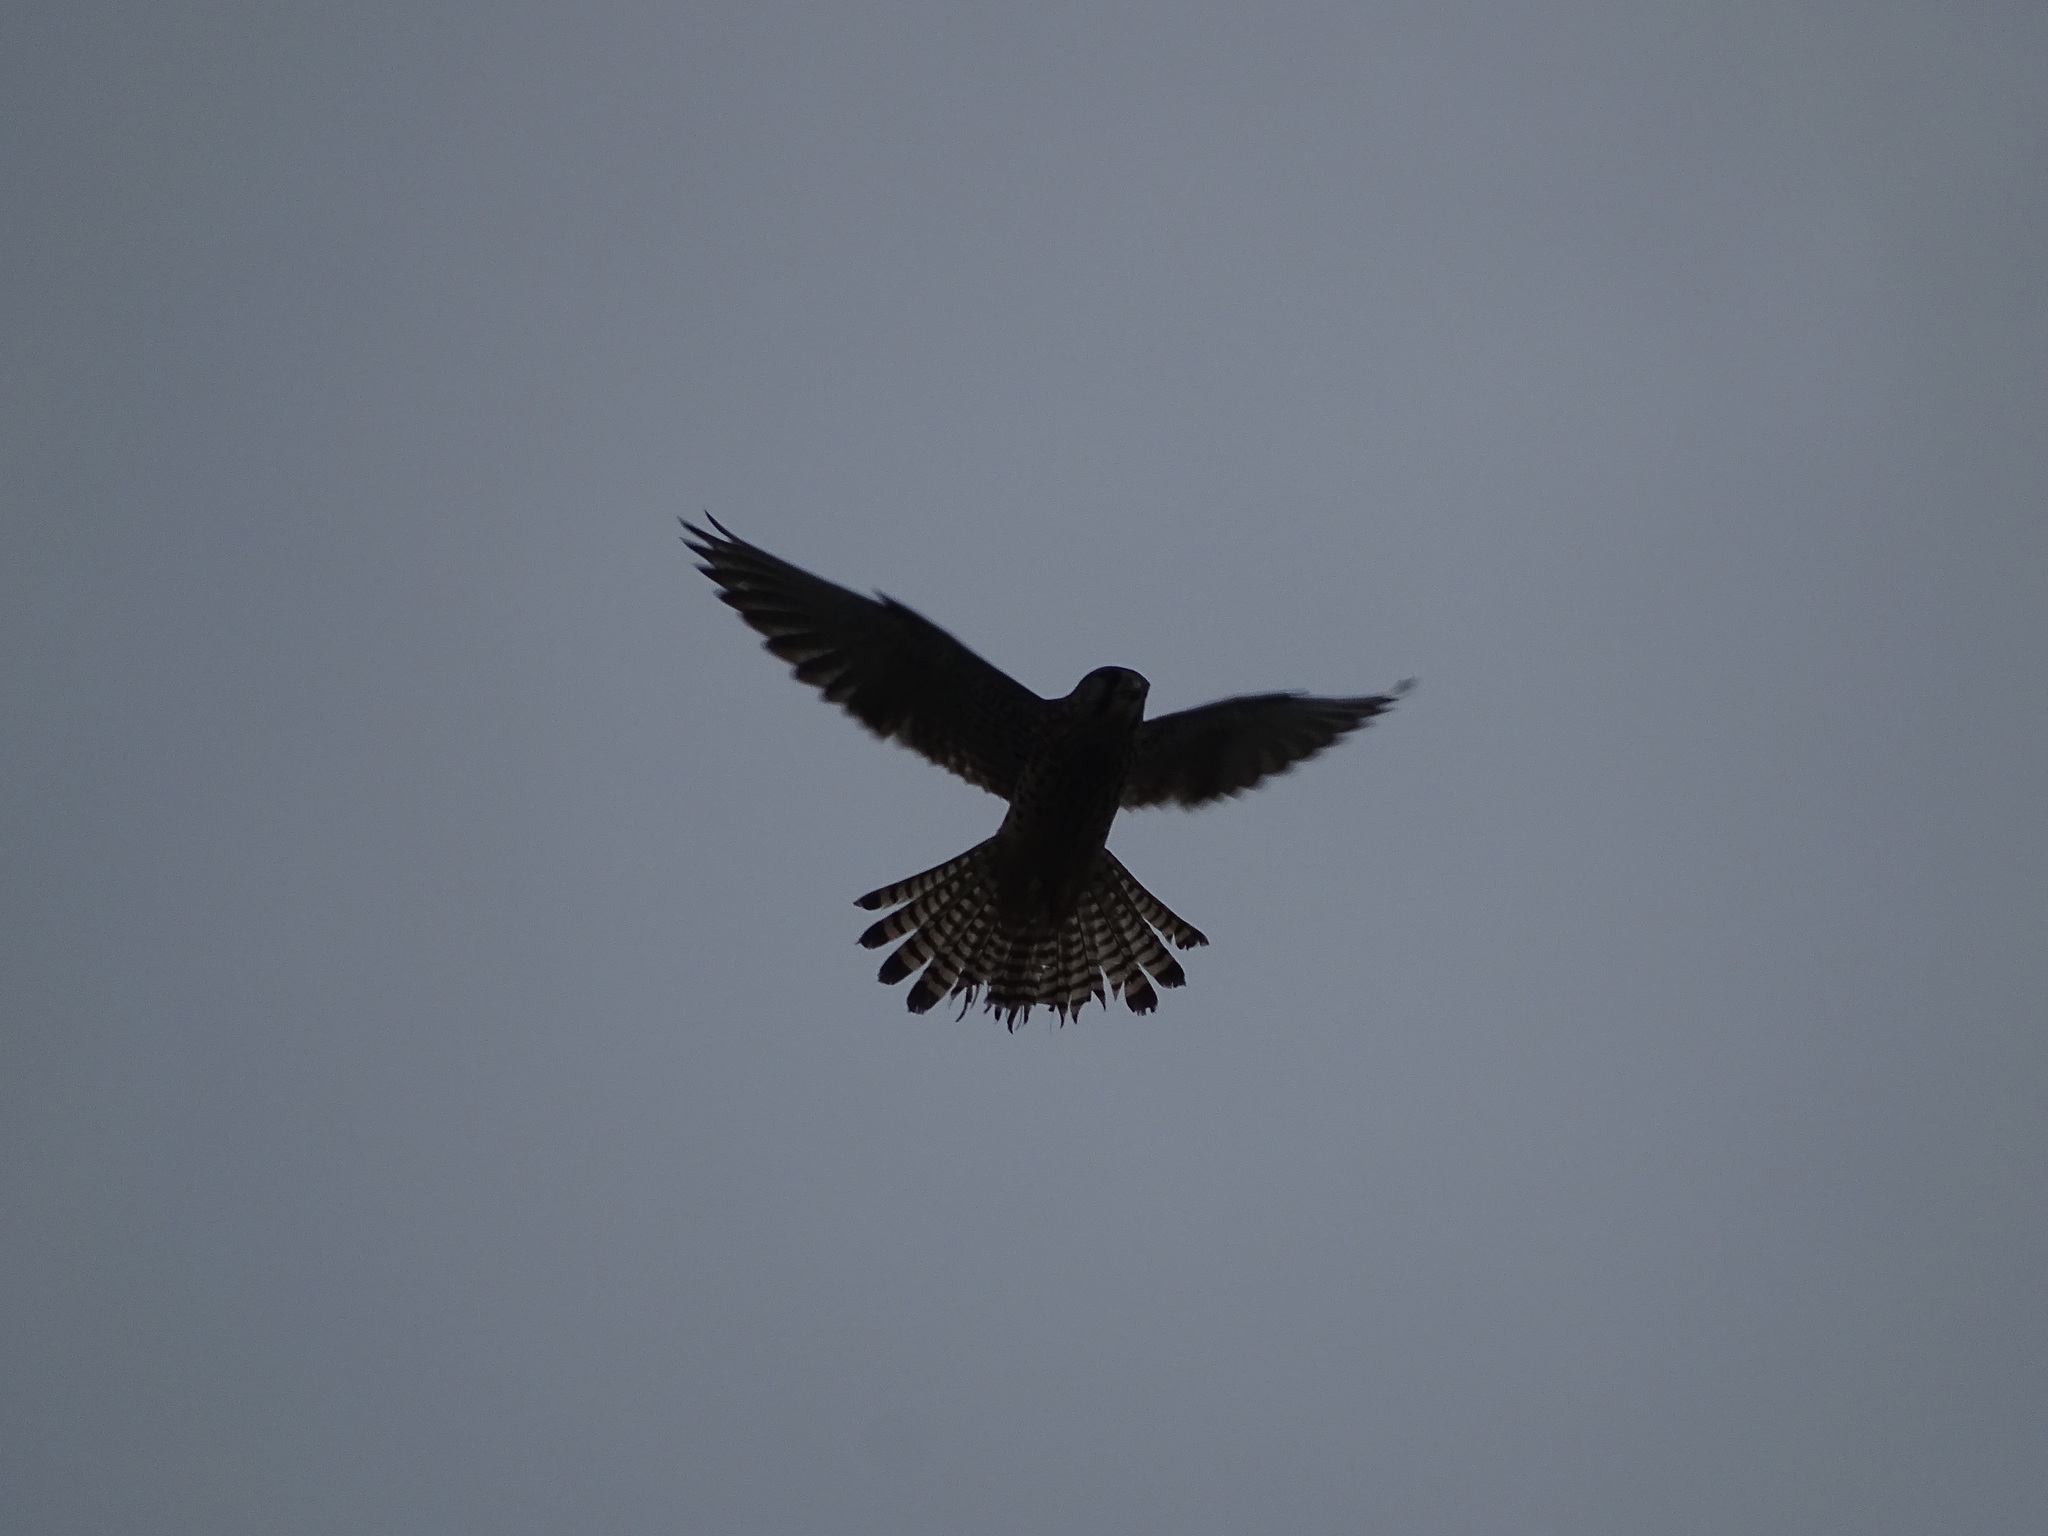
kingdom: Animalia
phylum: Chordata
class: Aves
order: Falconiformes
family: Falconidae
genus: Falco
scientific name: Falco tinnunculus
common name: Common kestrel
